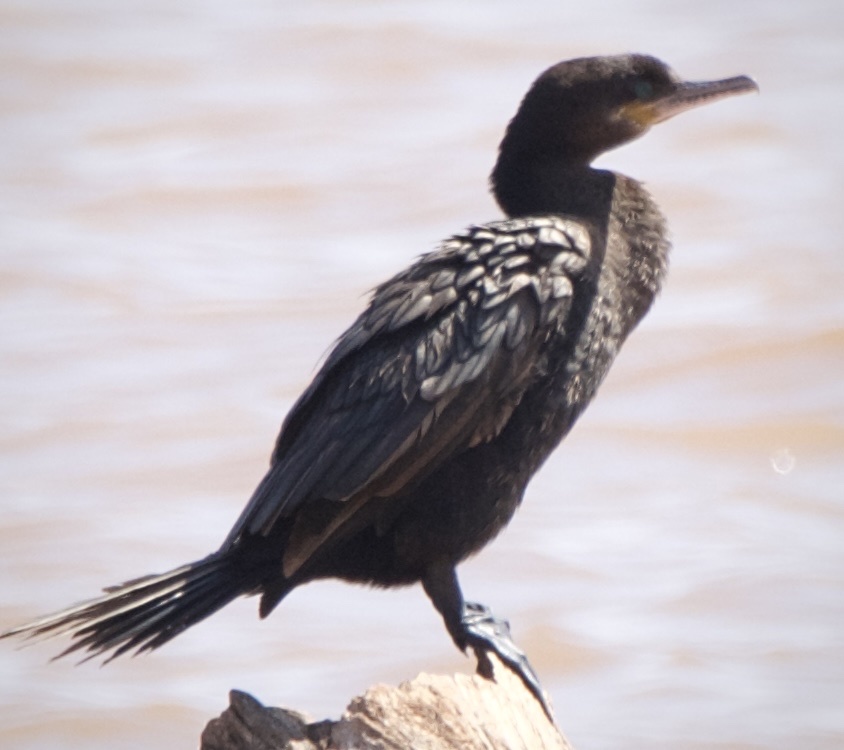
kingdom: Animalia
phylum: Chordata
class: Aves
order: Suliformes
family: Phalacrocoracidae
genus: Phalacrocorax
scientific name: Phalacrocorax brasilianus
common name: Neotropic cormorant
